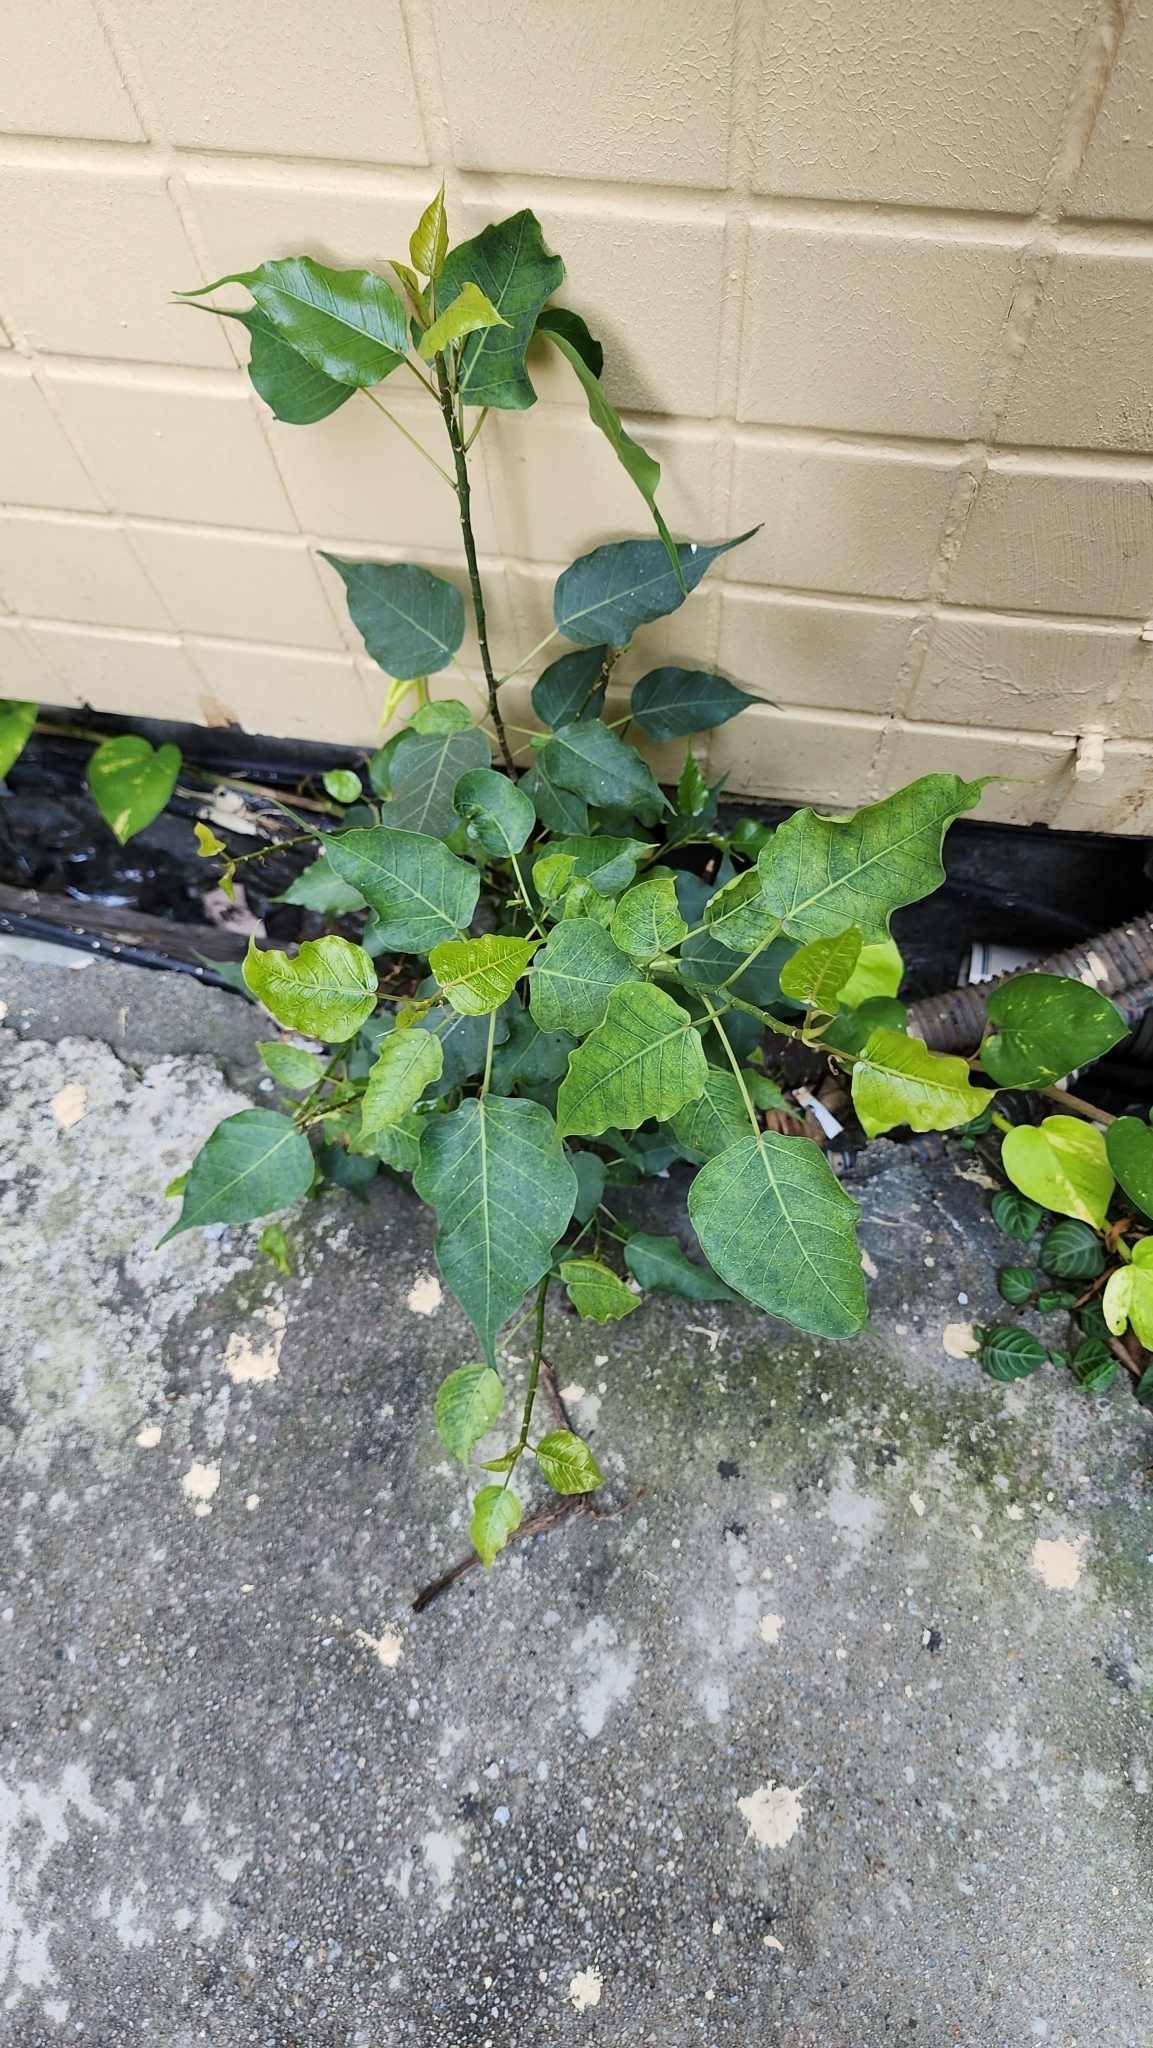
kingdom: Plantae
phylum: Tracheophyta
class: Magnoliopsida
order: Rosales
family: Moraceae
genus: Ficus
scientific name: Ficus religiosa
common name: Bodhi tree
